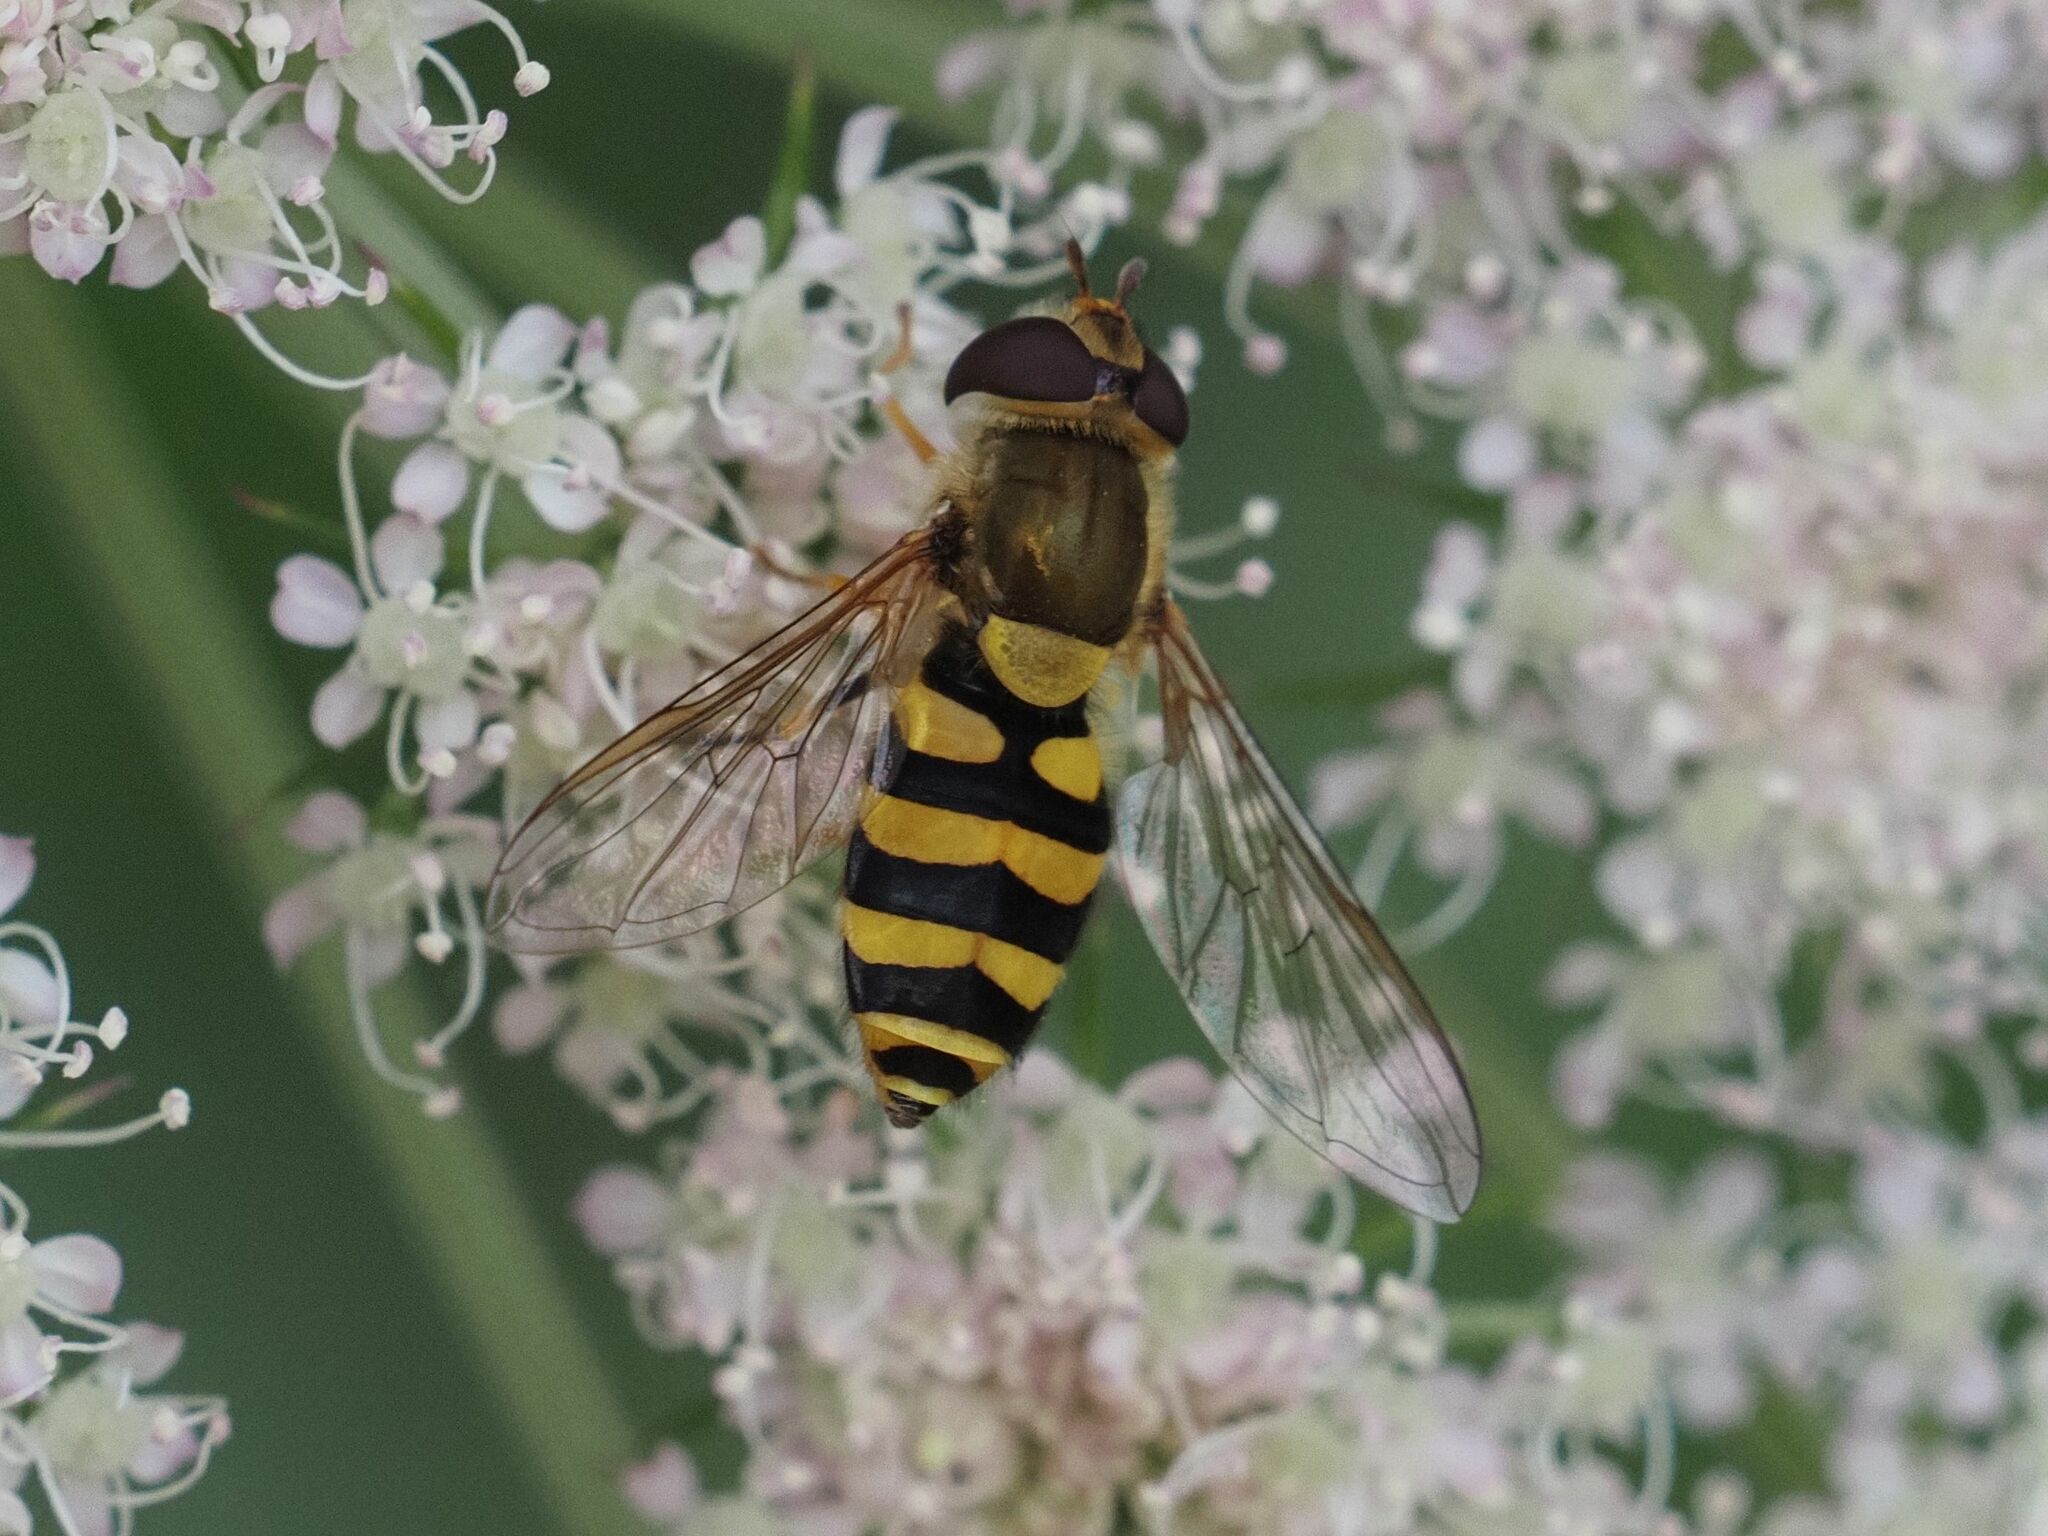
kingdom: Animalia
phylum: Arthropoda
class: Insecta
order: Diptera
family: Syrphidae
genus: Syrphus
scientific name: Syrphus
